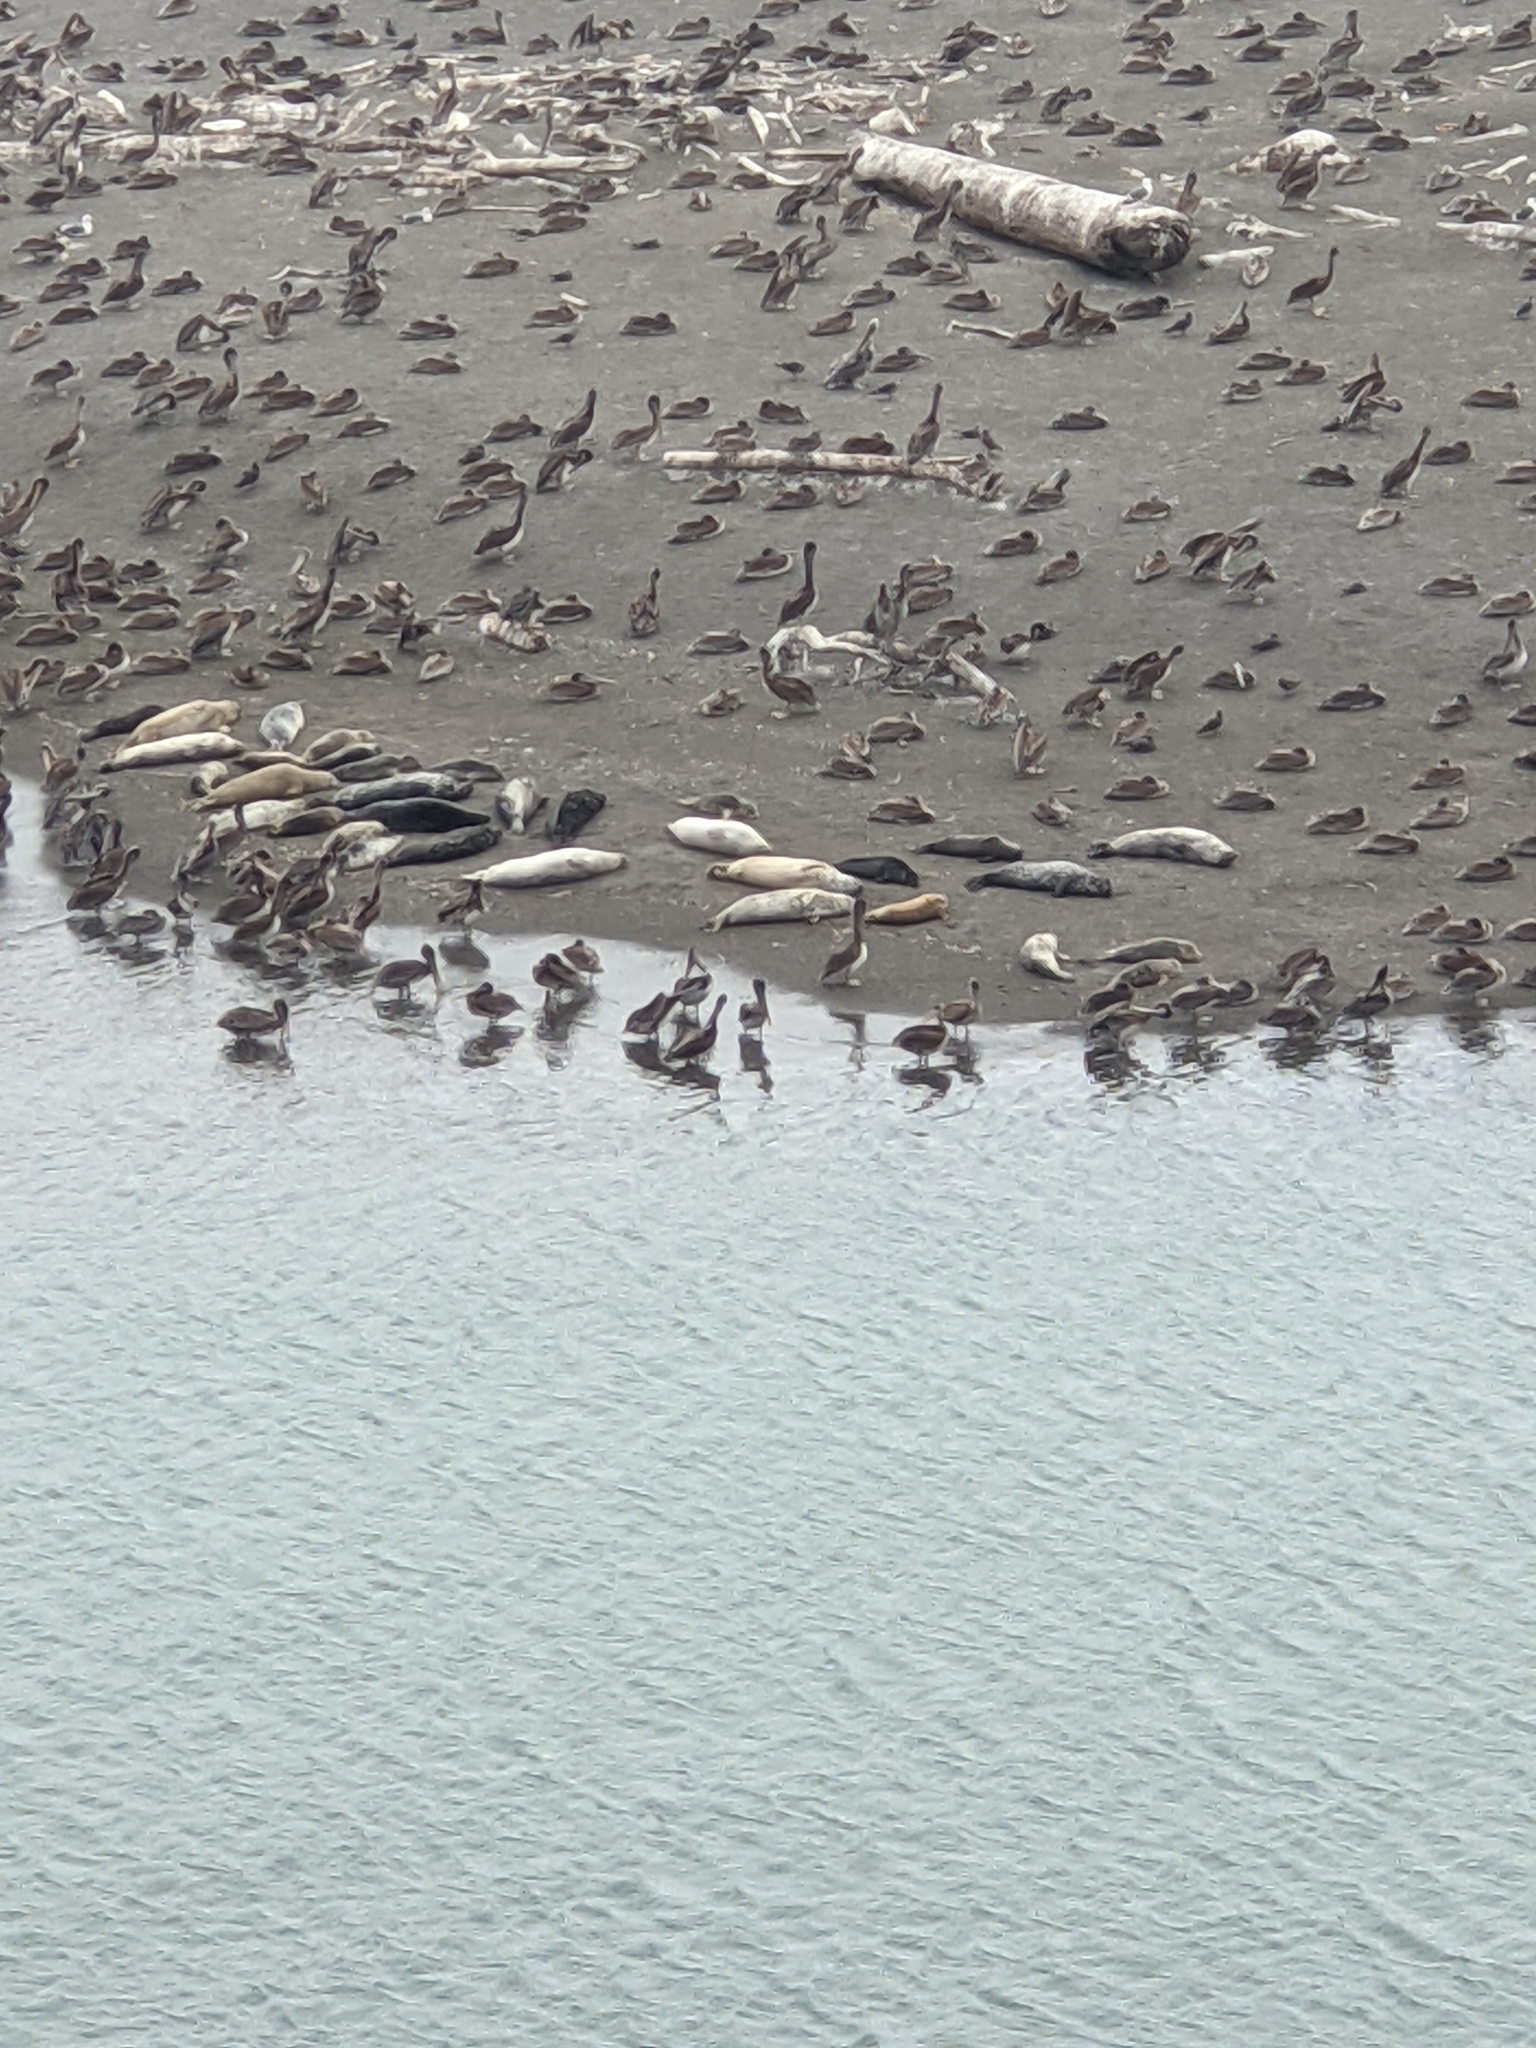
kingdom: Animalia
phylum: Chordata
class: Mammalia
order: Carnivora
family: Phocidae
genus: Phoca
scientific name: Phoca vitulina
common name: Harbor seal
